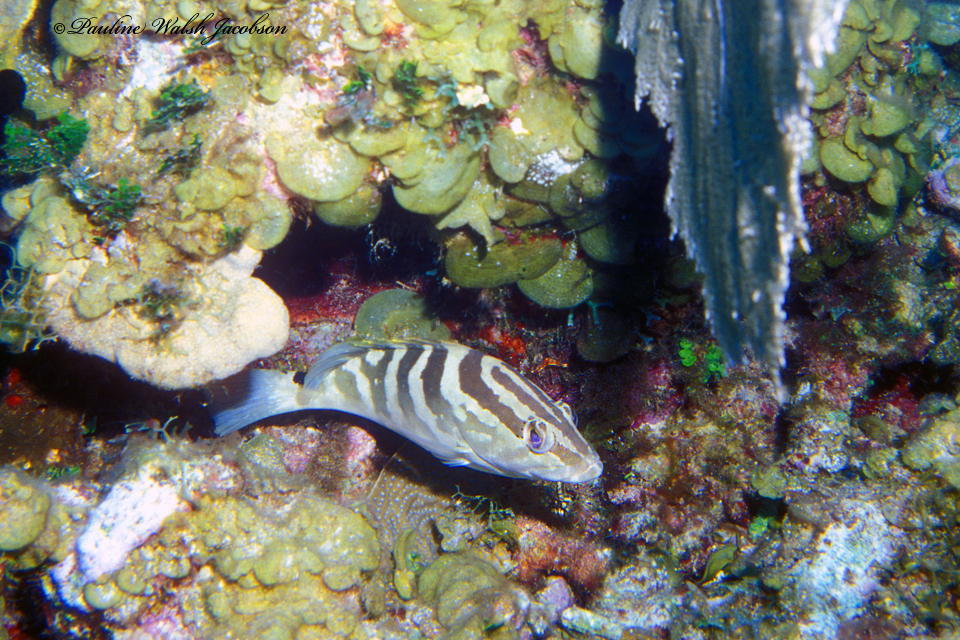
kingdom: Animalia
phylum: Chordata
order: Perciformes
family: Serranidae
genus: Epinephelus
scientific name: Epinephelus striatus
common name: Nassau grouper
